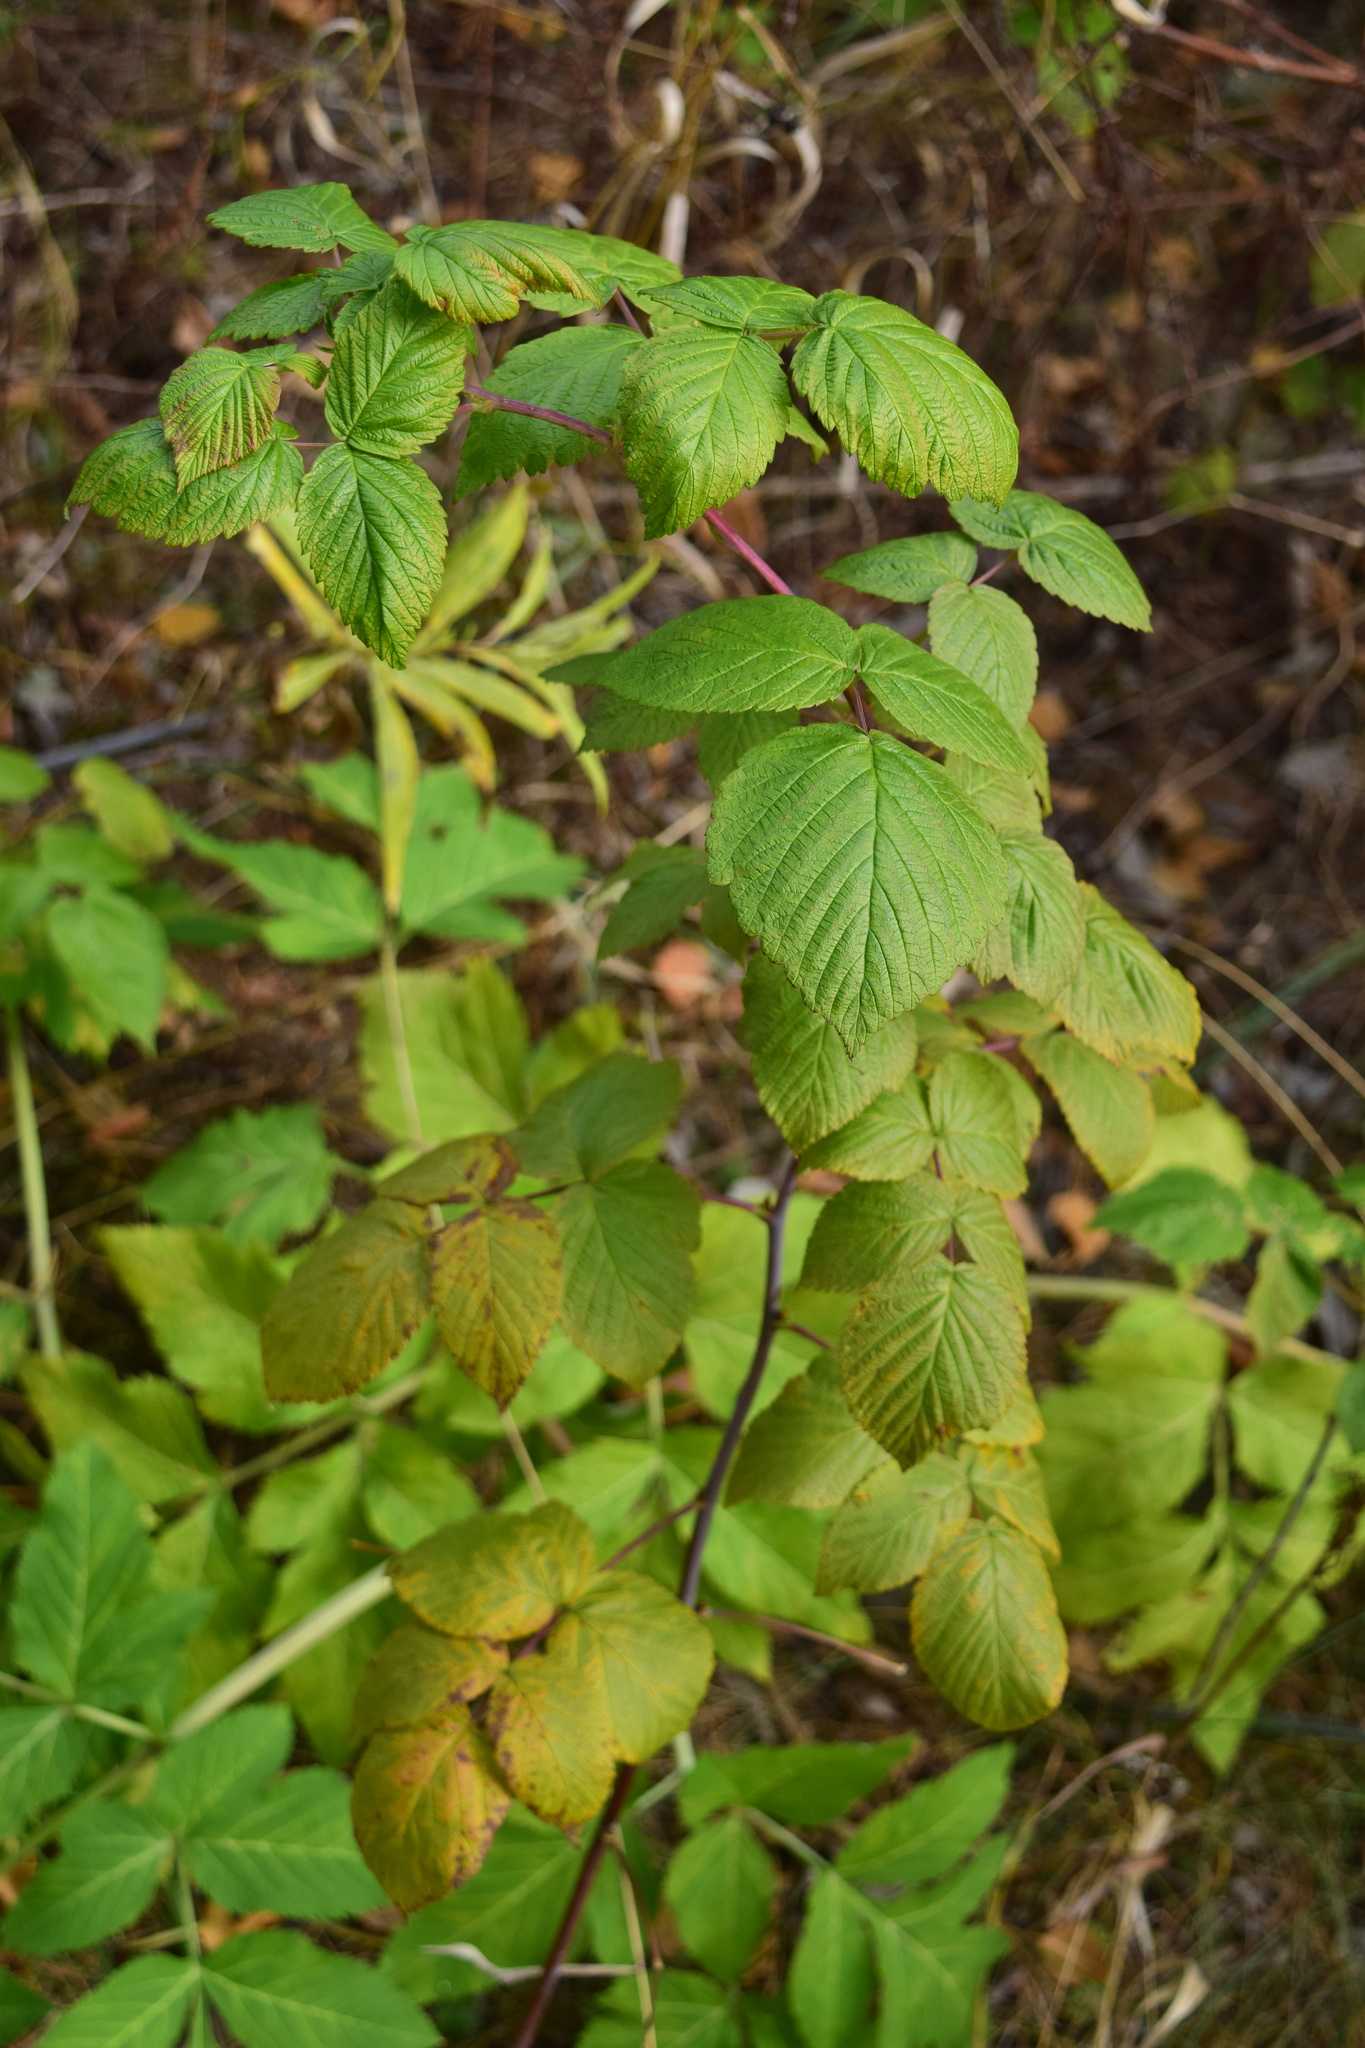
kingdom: Plantae
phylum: Tracheophyta
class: Magnoliopsida
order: Rosales
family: Rosaceae
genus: Rubus
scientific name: Rubus idaeus
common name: Raspberry
